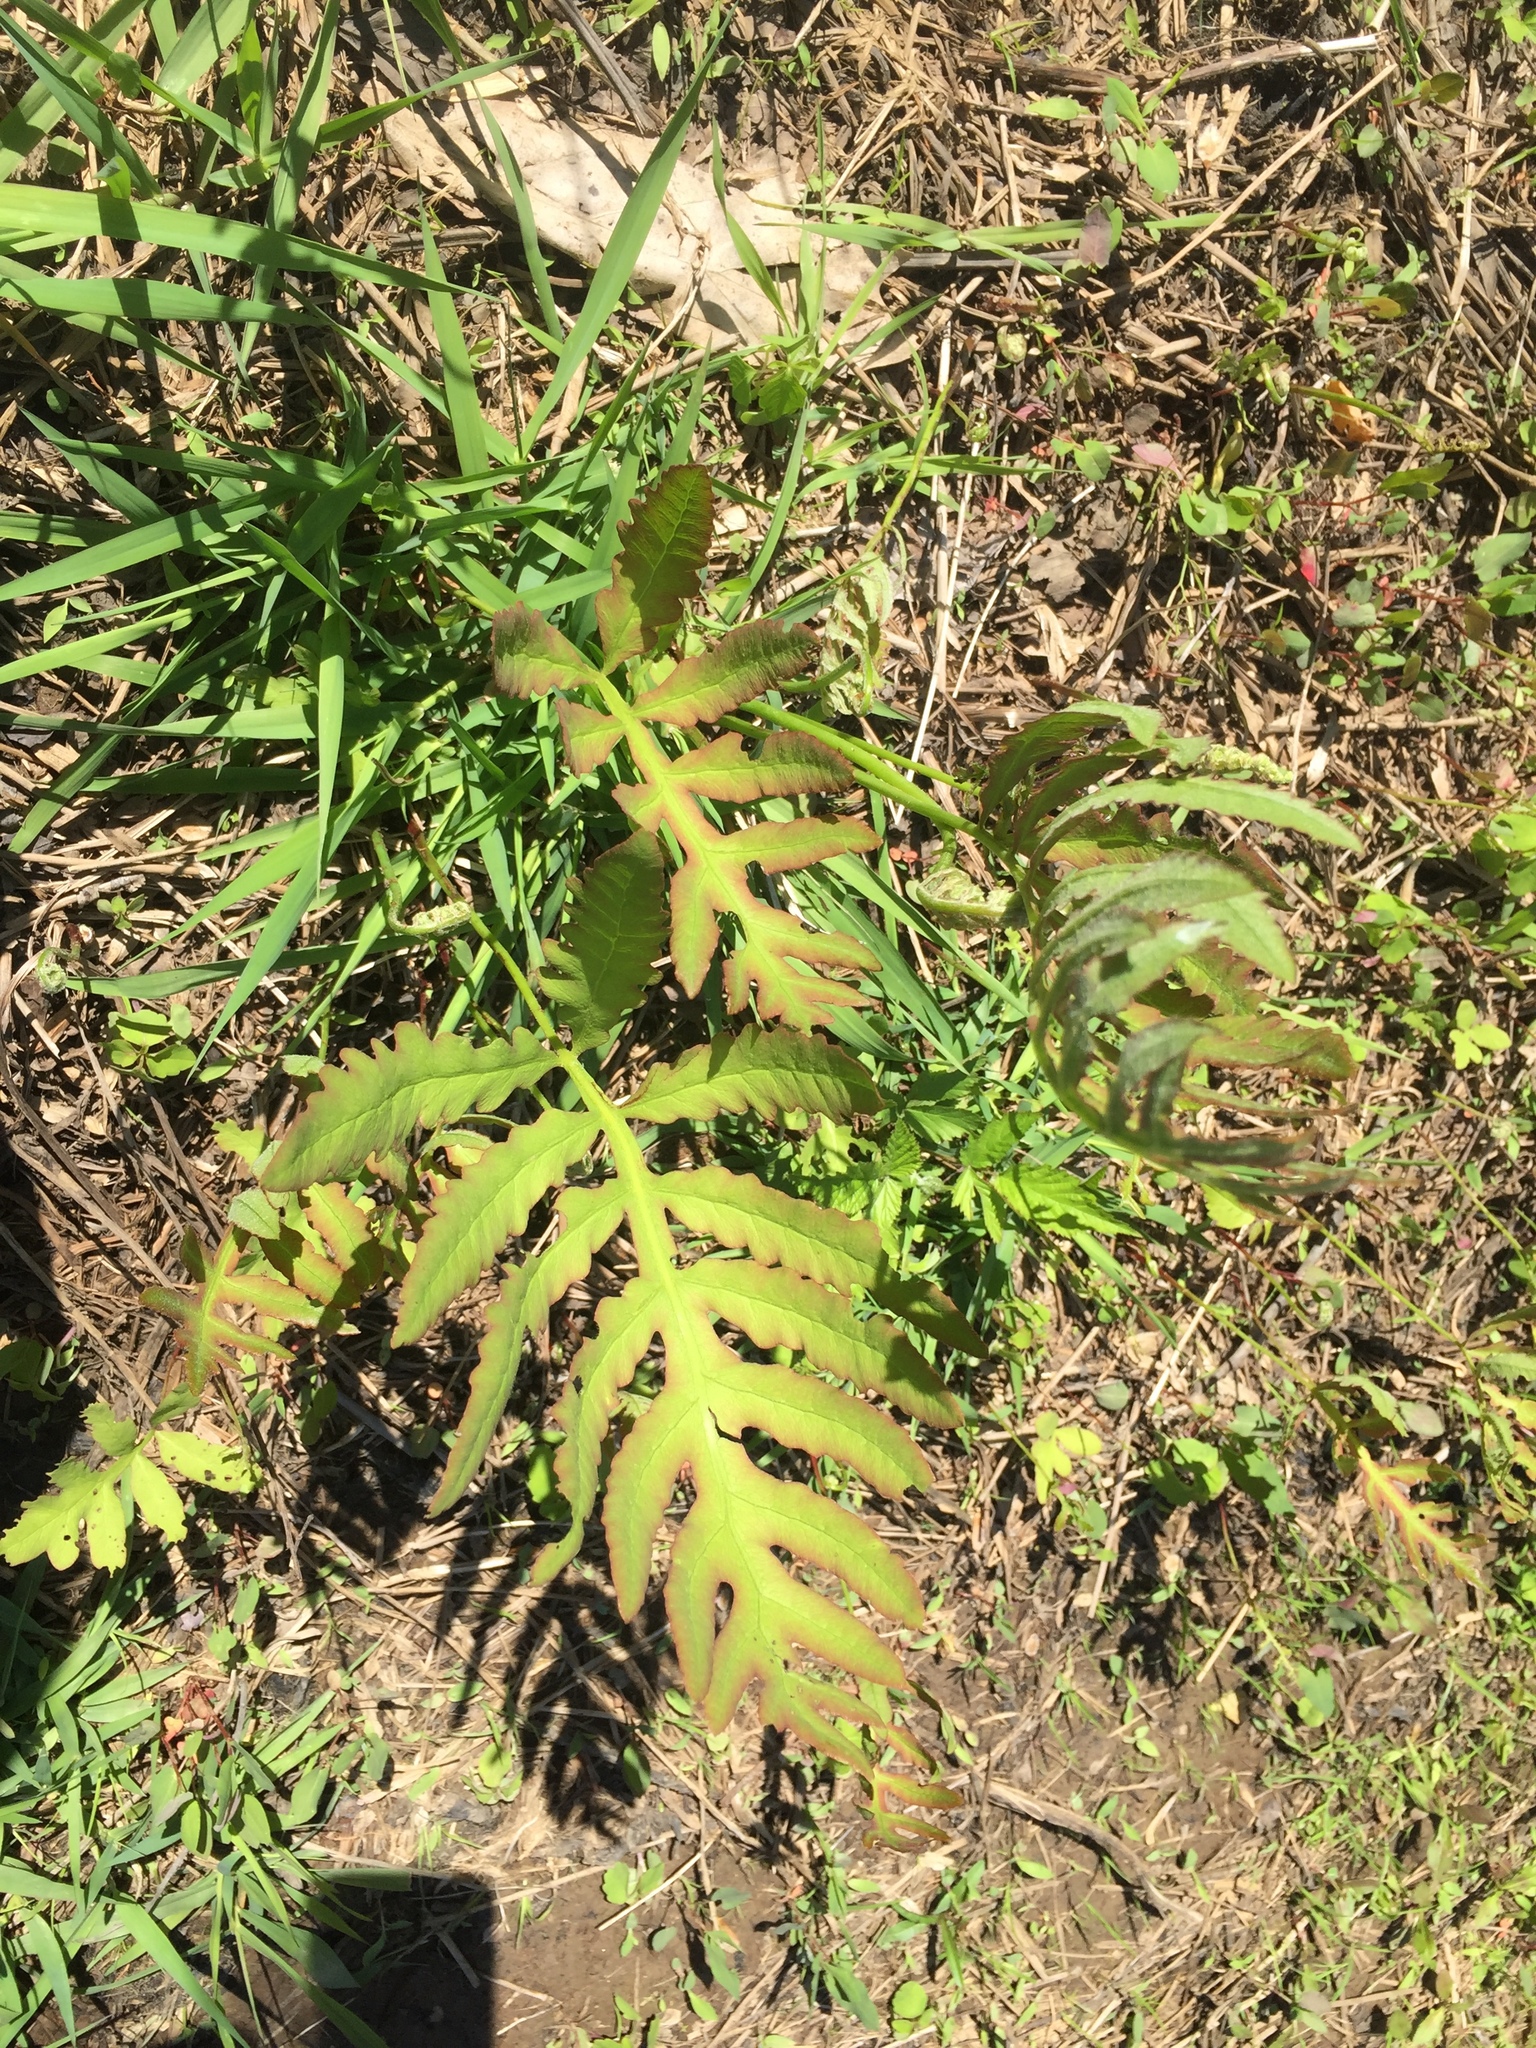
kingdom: Plantae
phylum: Tracheophyta
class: Polypodiopsida
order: Polypodiales
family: Onocleaceae
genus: Onoclea
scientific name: Onoclea sensibilis
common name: Sensitive fern
